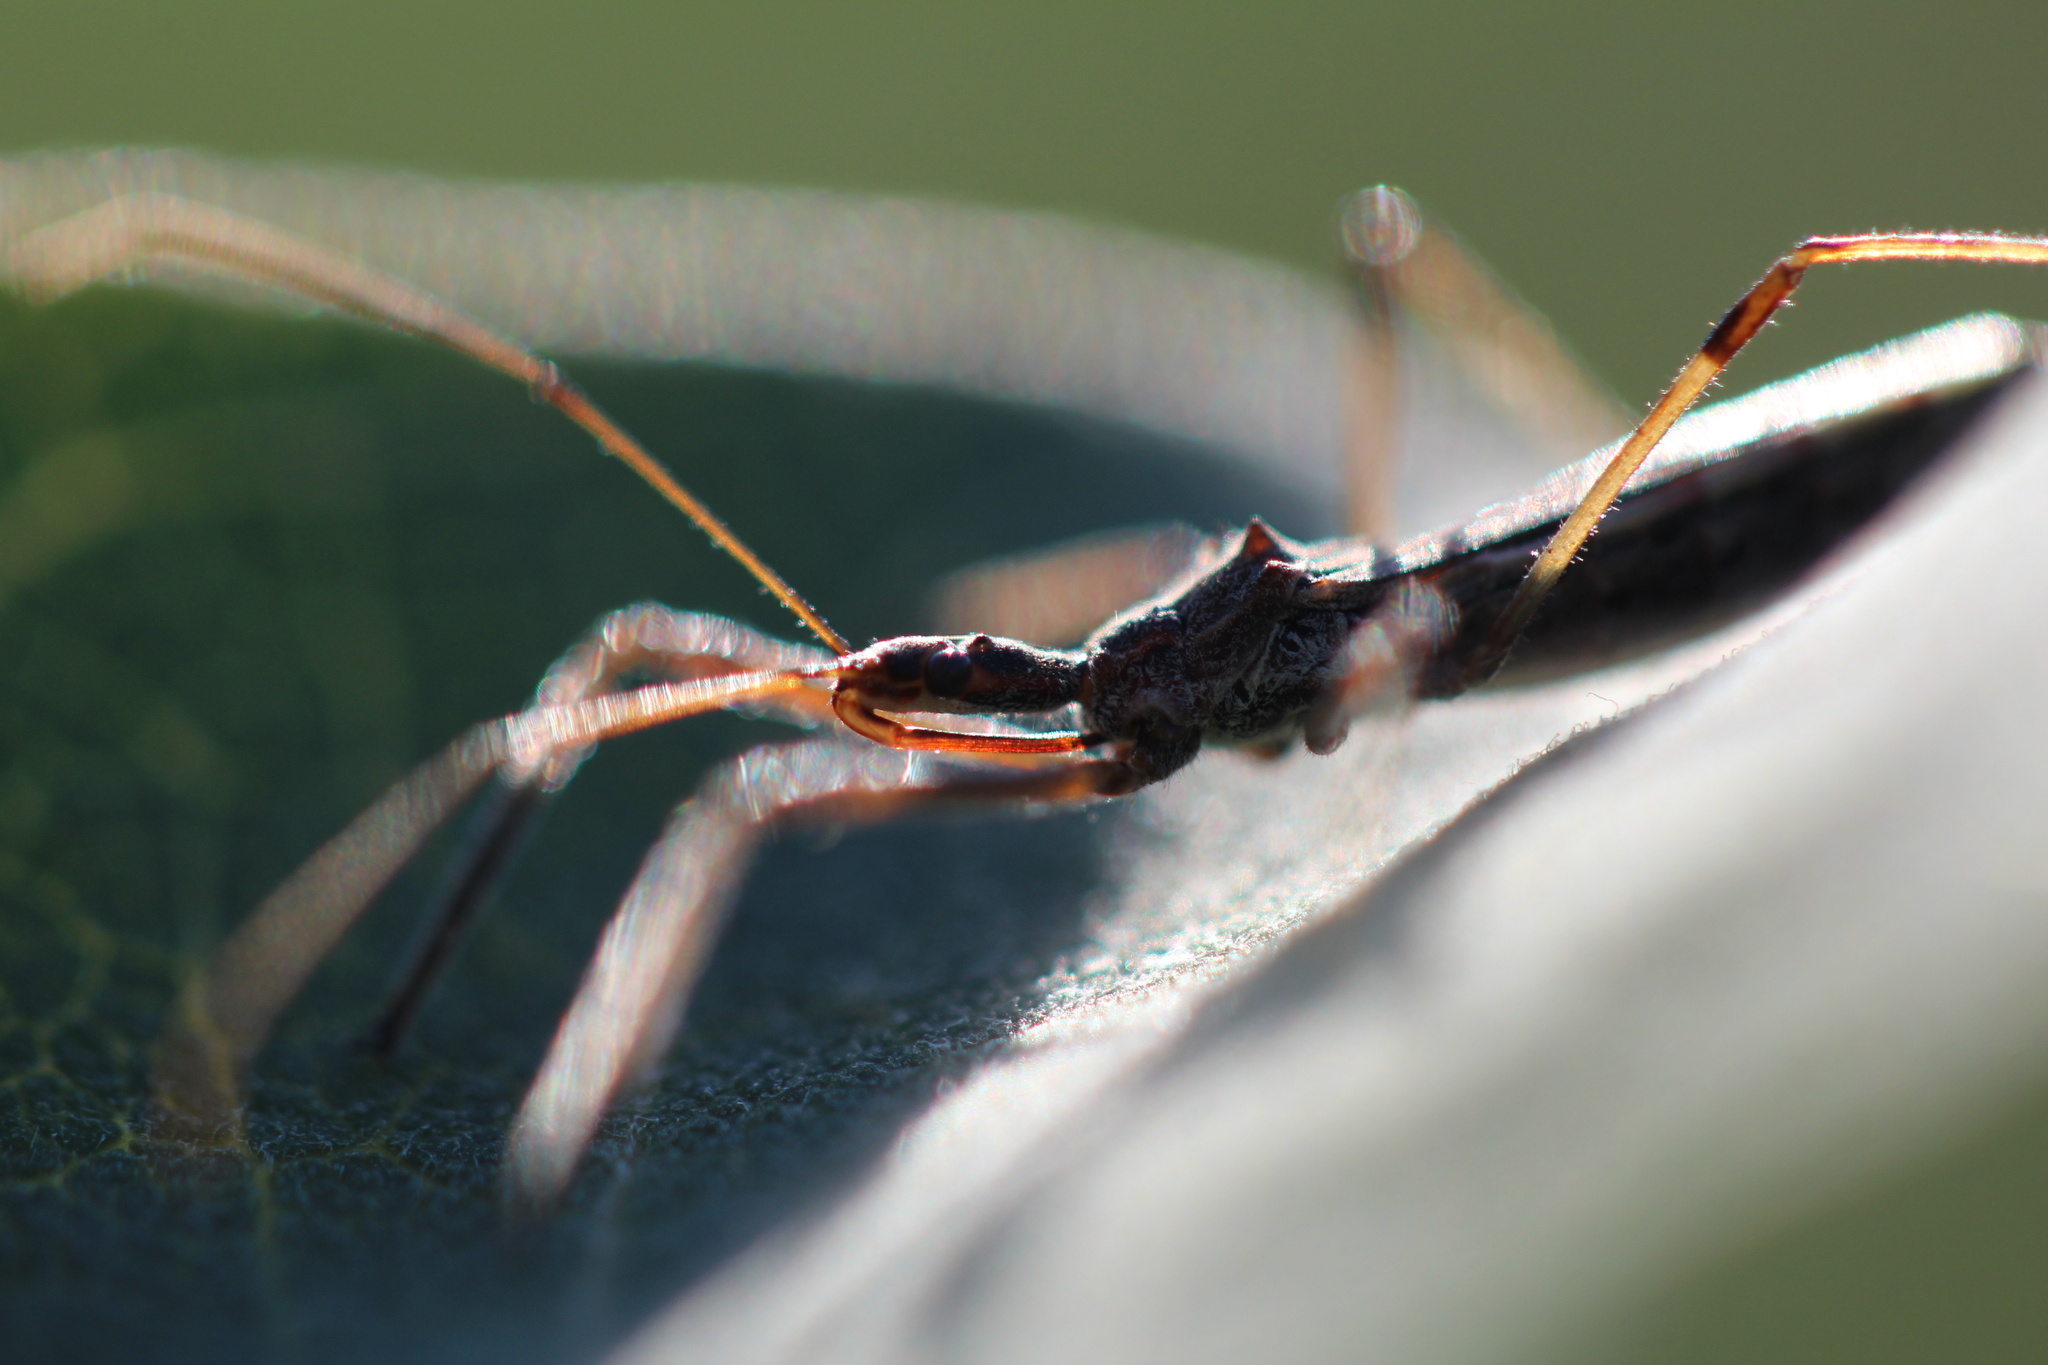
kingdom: Animalia
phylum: Arthropoda
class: Insecta
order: Hemiptera
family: Reduviidae
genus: Zelus
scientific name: Zelus tetracanthus
